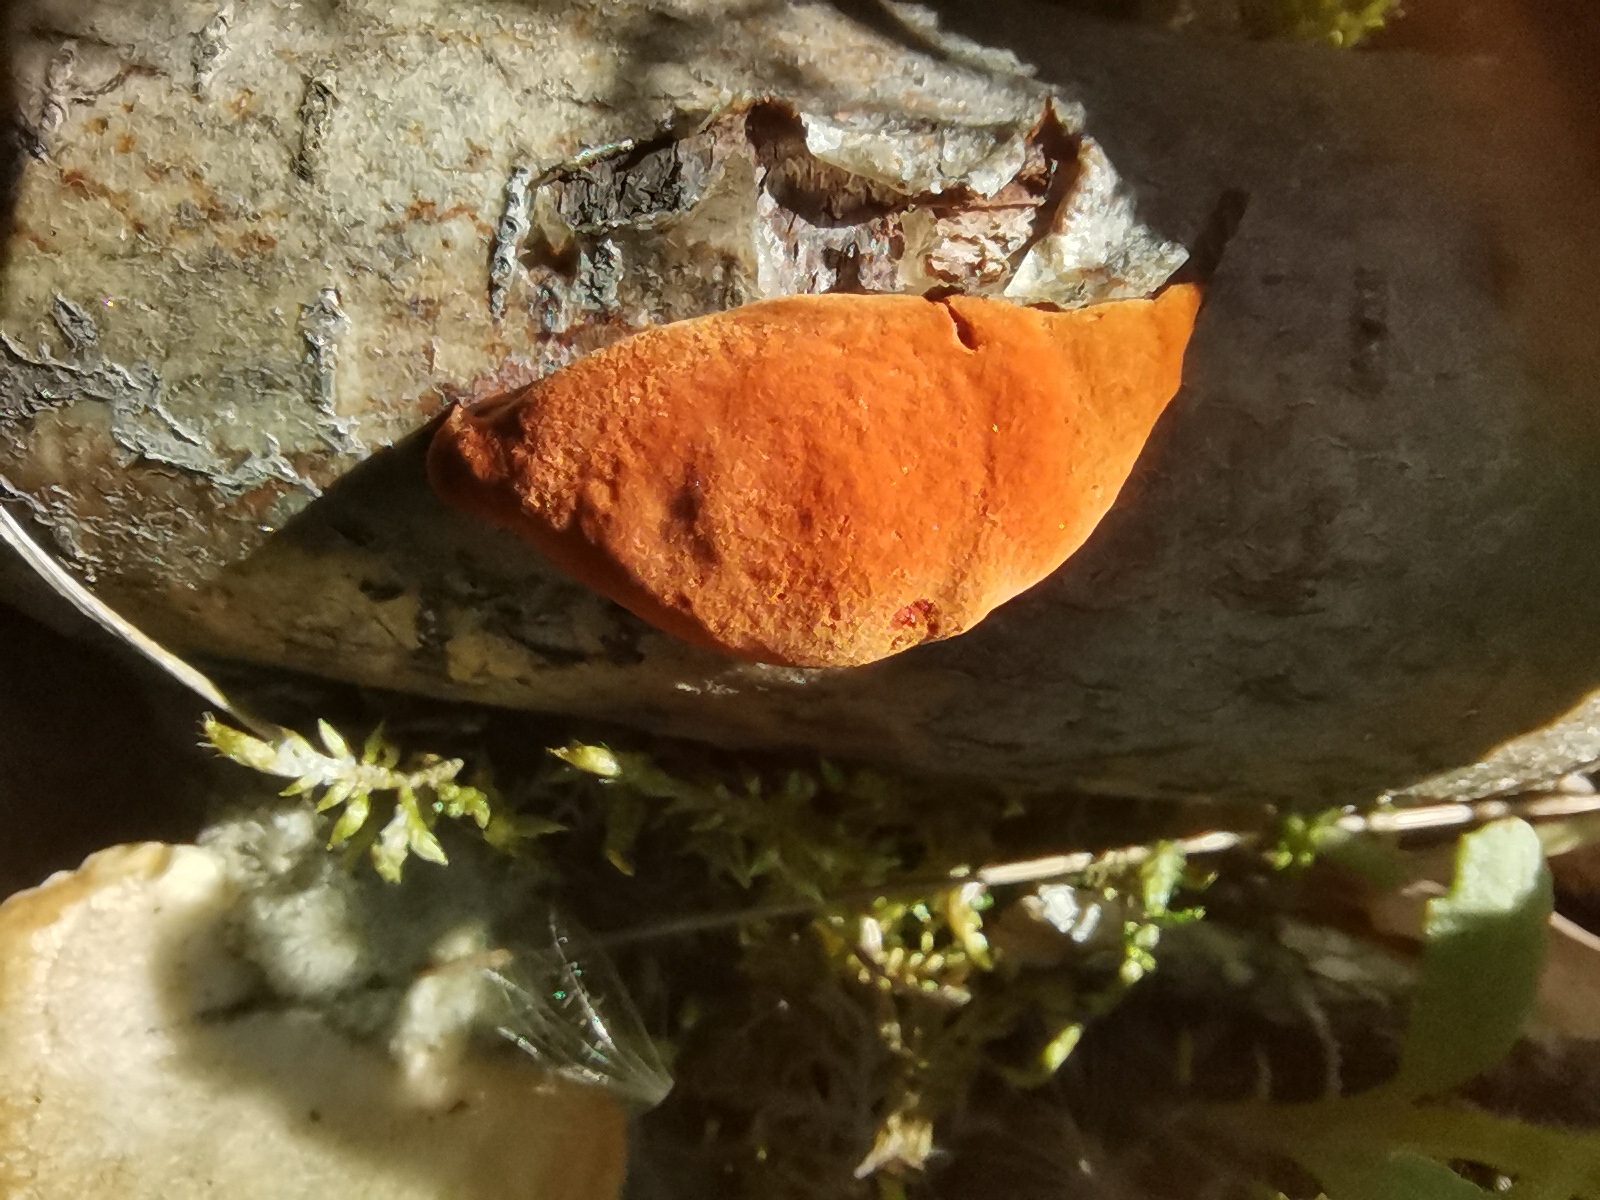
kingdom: Fungi
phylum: Basidiomycota
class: Agaricomycetes
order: Polyporales
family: Polyporaceae
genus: Trametes
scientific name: Trametes cinnabarina
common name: Northern cinnabar polypore
